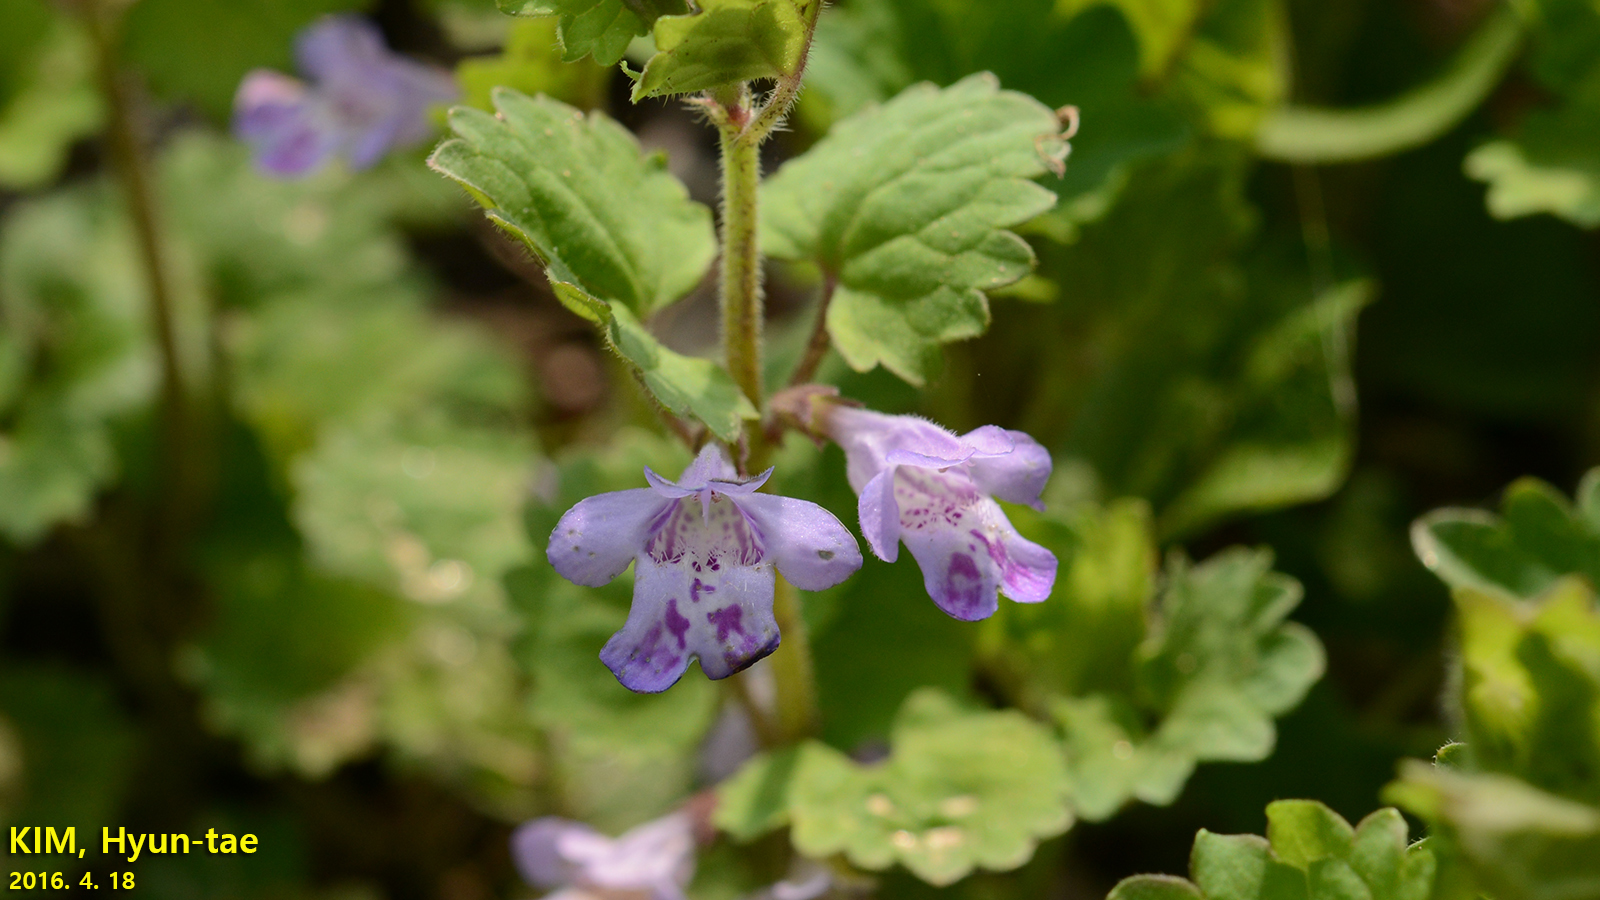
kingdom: Plantae
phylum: Tracheophyta
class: Magnoliopsida
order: Lamiales
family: Lamiaceae
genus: Glechoma
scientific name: Glechoma longituba
